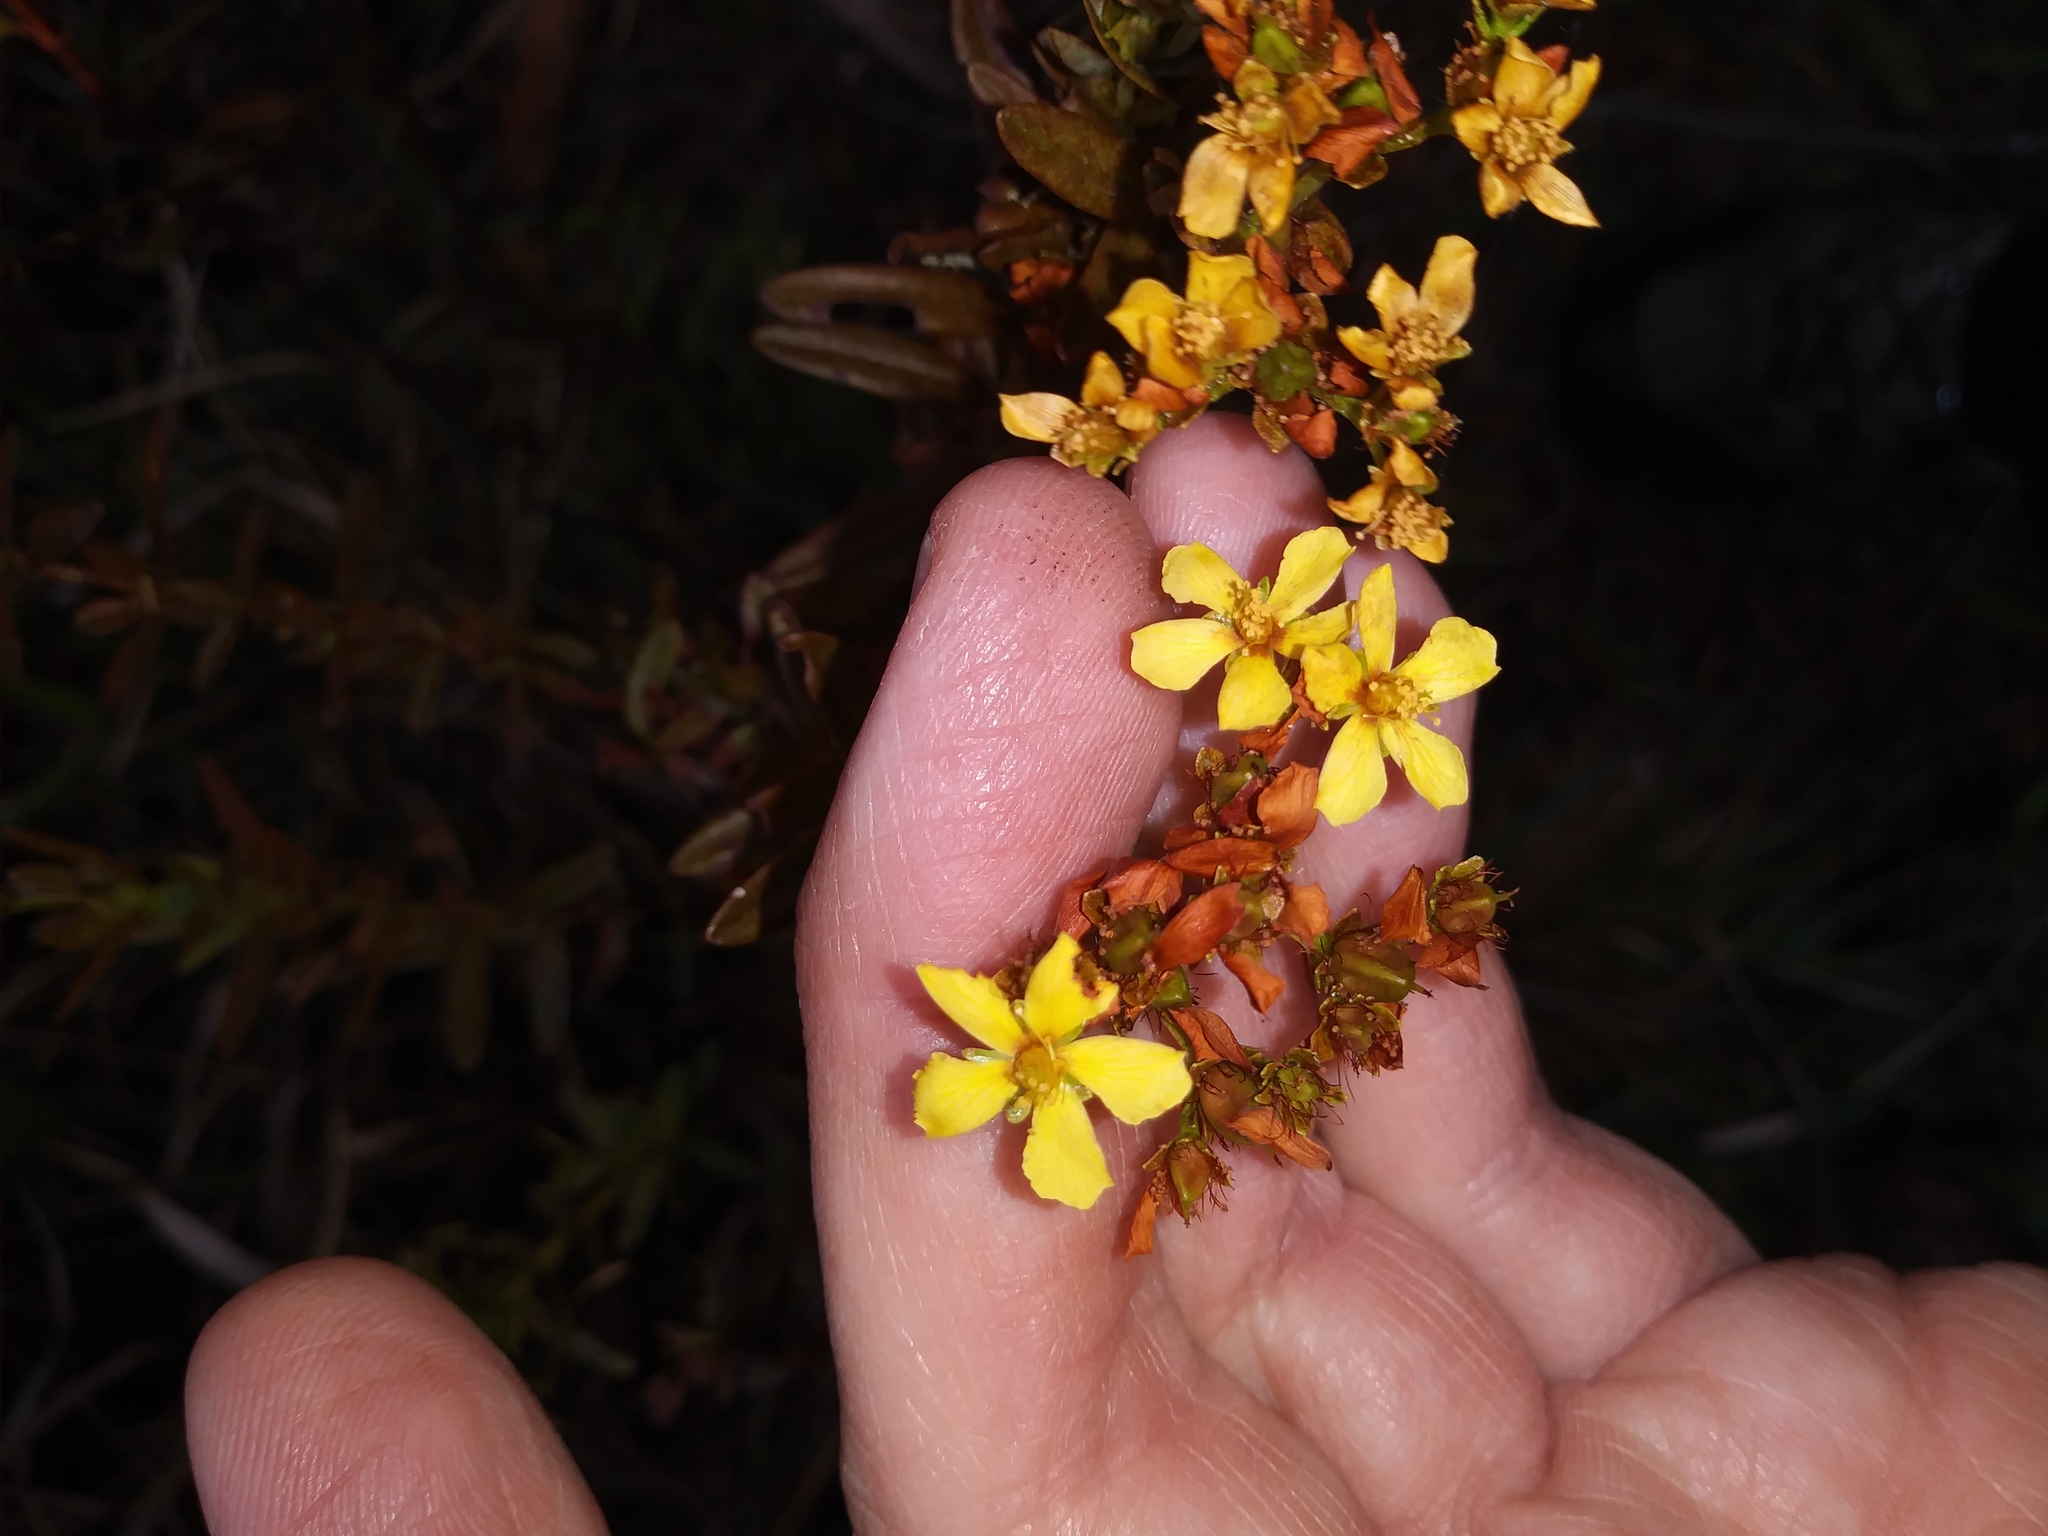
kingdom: Plantae
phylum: Tracheophyta
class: Magnoliopsida
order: Malpighiales
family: Hypericaceae
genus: Hypericum
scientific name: Hypericum cistifolium
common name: Round-pod st. john's-wort
